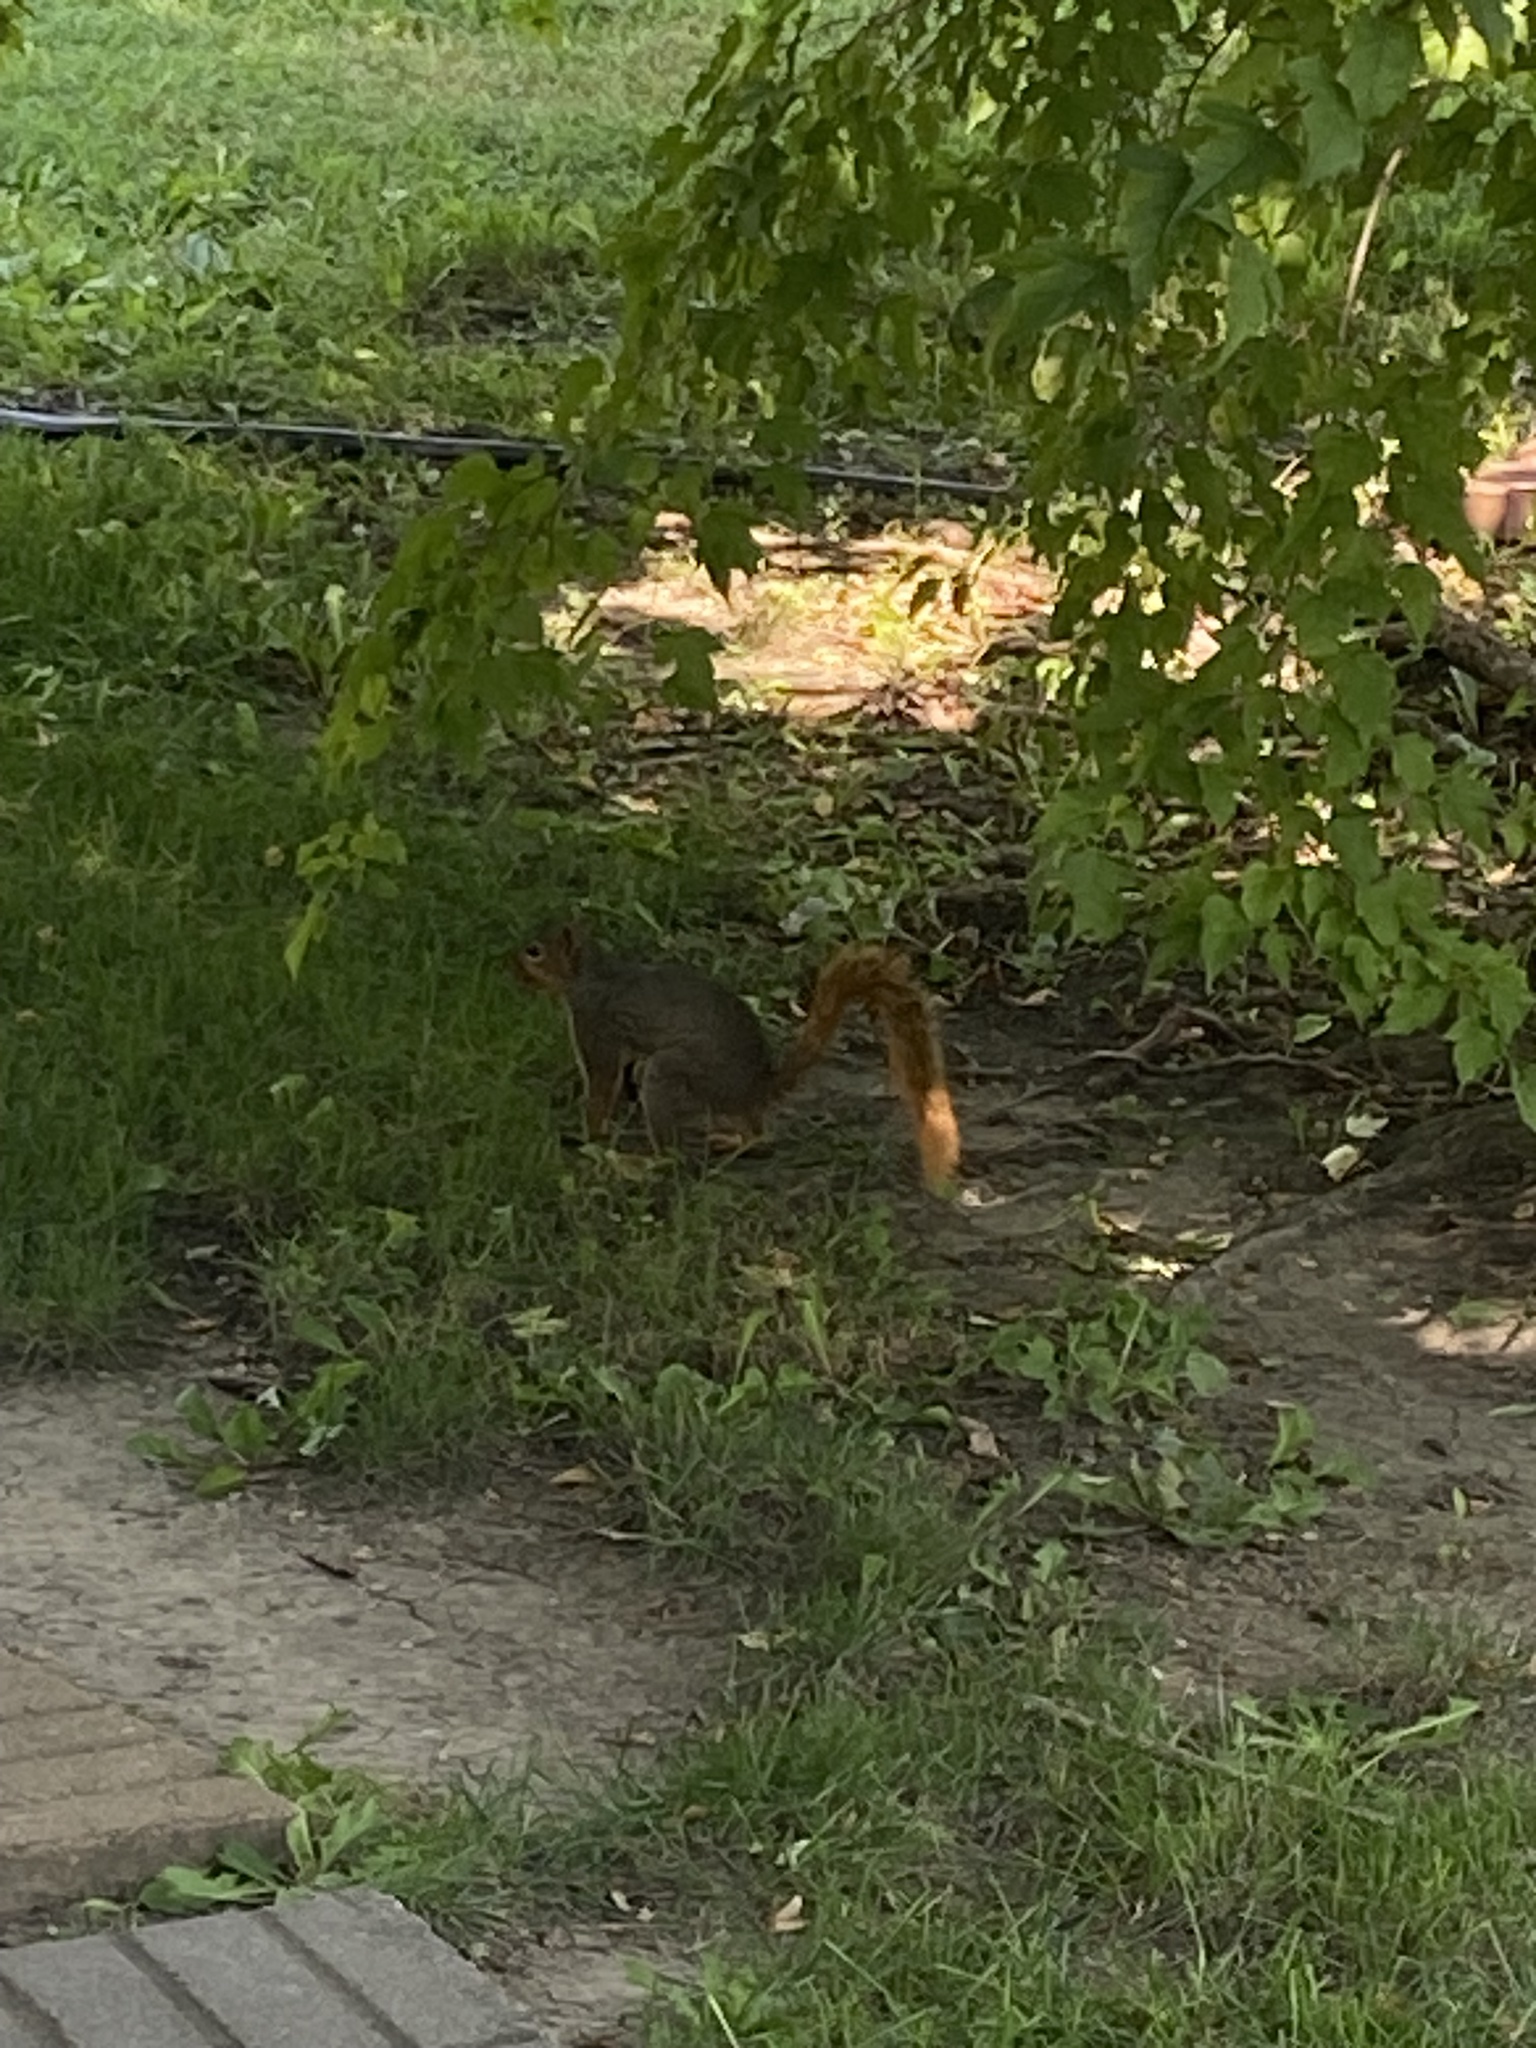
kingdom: Animalia
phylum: Chordata
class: Mammalia
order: Rodentia
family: Sciuridae
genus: Sciurus
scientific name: Sciurus niger
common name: Fox squirrel
